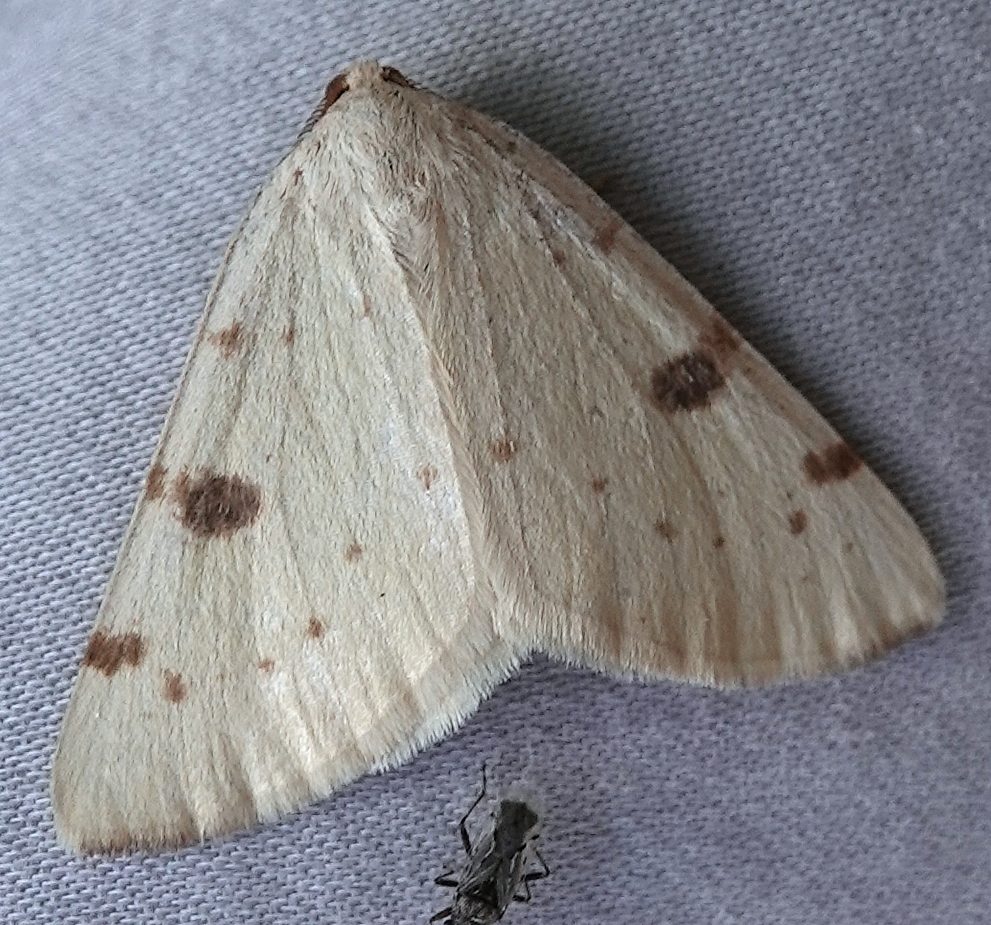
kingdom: Animalia
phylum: Arthropoda
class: Insecta
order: Lepidoptera
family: Geometridae
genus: Hesperumia
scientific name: Hesperumia sulphuraria
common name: Sulphur moth
